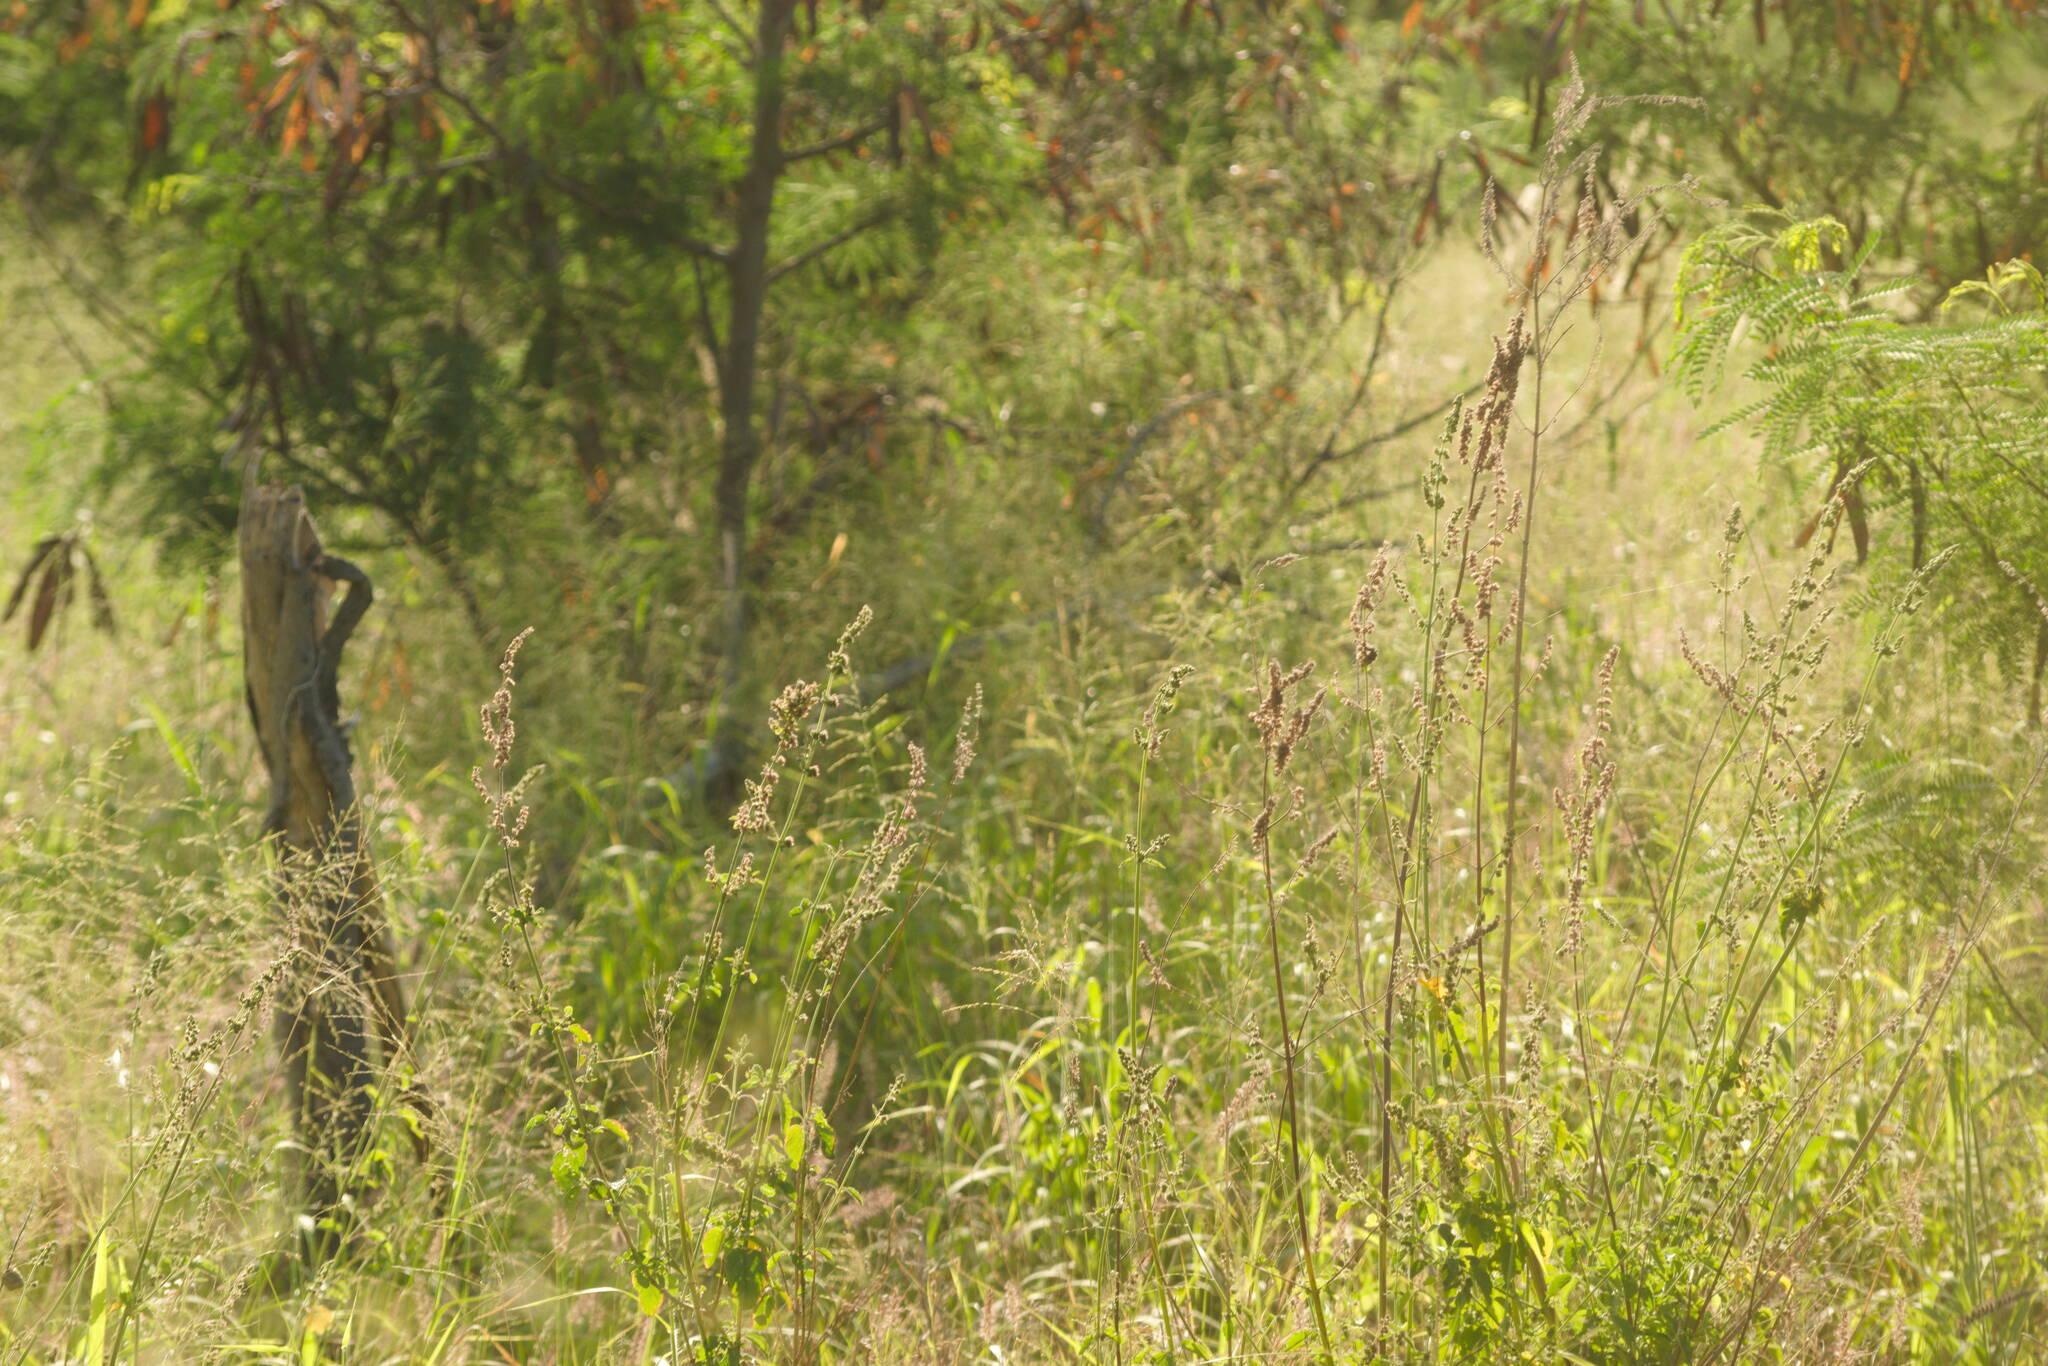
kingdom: Plantae
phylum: Tracheophyta
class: Magnoliopsida
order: Lamiales
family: Lamiaceae
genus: Mesosphaerum
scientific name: Mesosphaerum pectinatum
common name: Comb hyptis
